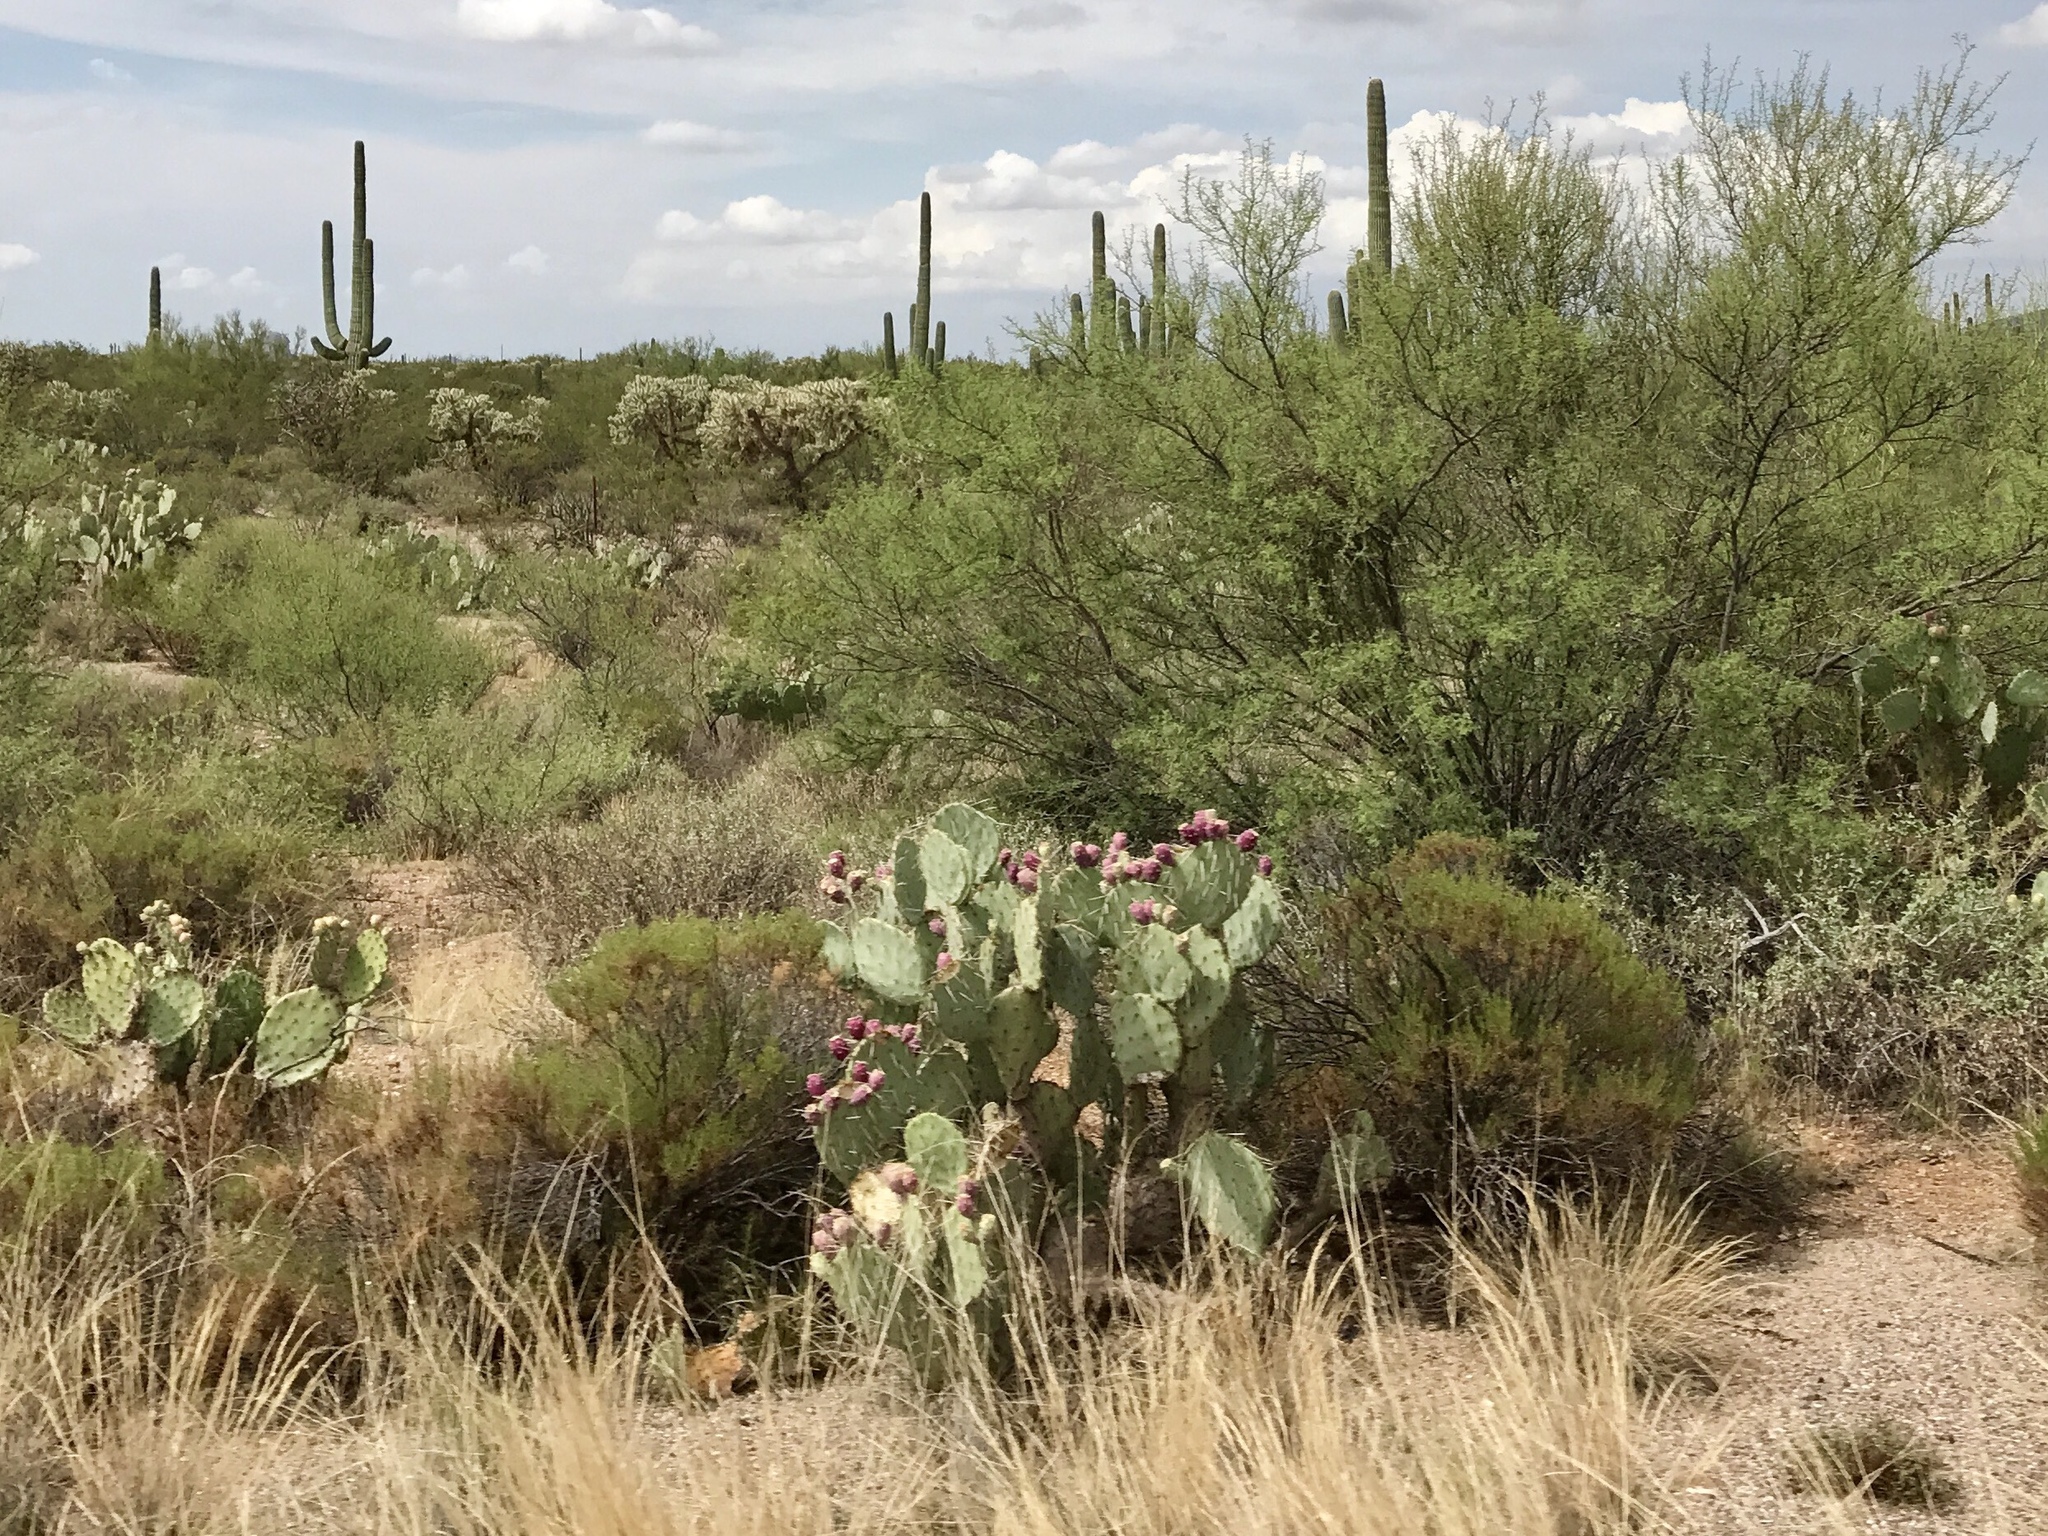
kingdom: Plantae
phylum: Tracheophyta
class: Magnoliopsida
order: Caryophyllales
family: Cactaceae
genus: Opuntia
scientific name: Opuntia engelmannii
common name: Cactus-apple
